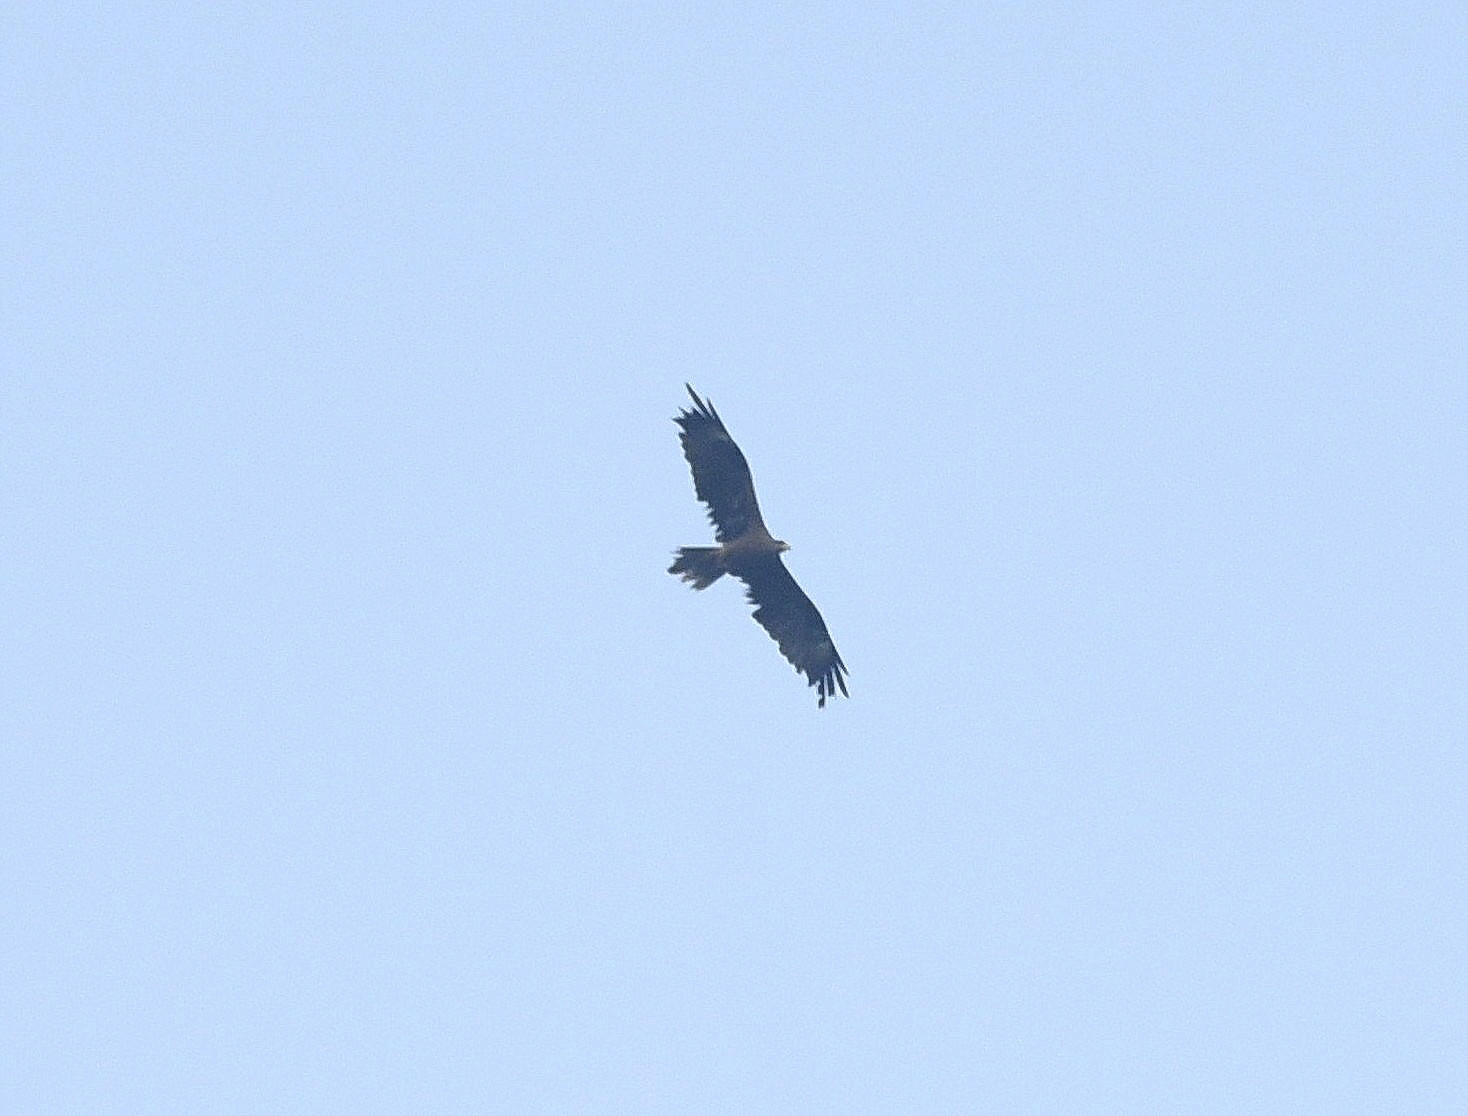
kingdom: Animalia
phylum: Chordata
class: Aves
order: Accipitriformes
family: Accipitridae
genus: Milvus
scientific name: Milvus migrans
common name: Black kite
